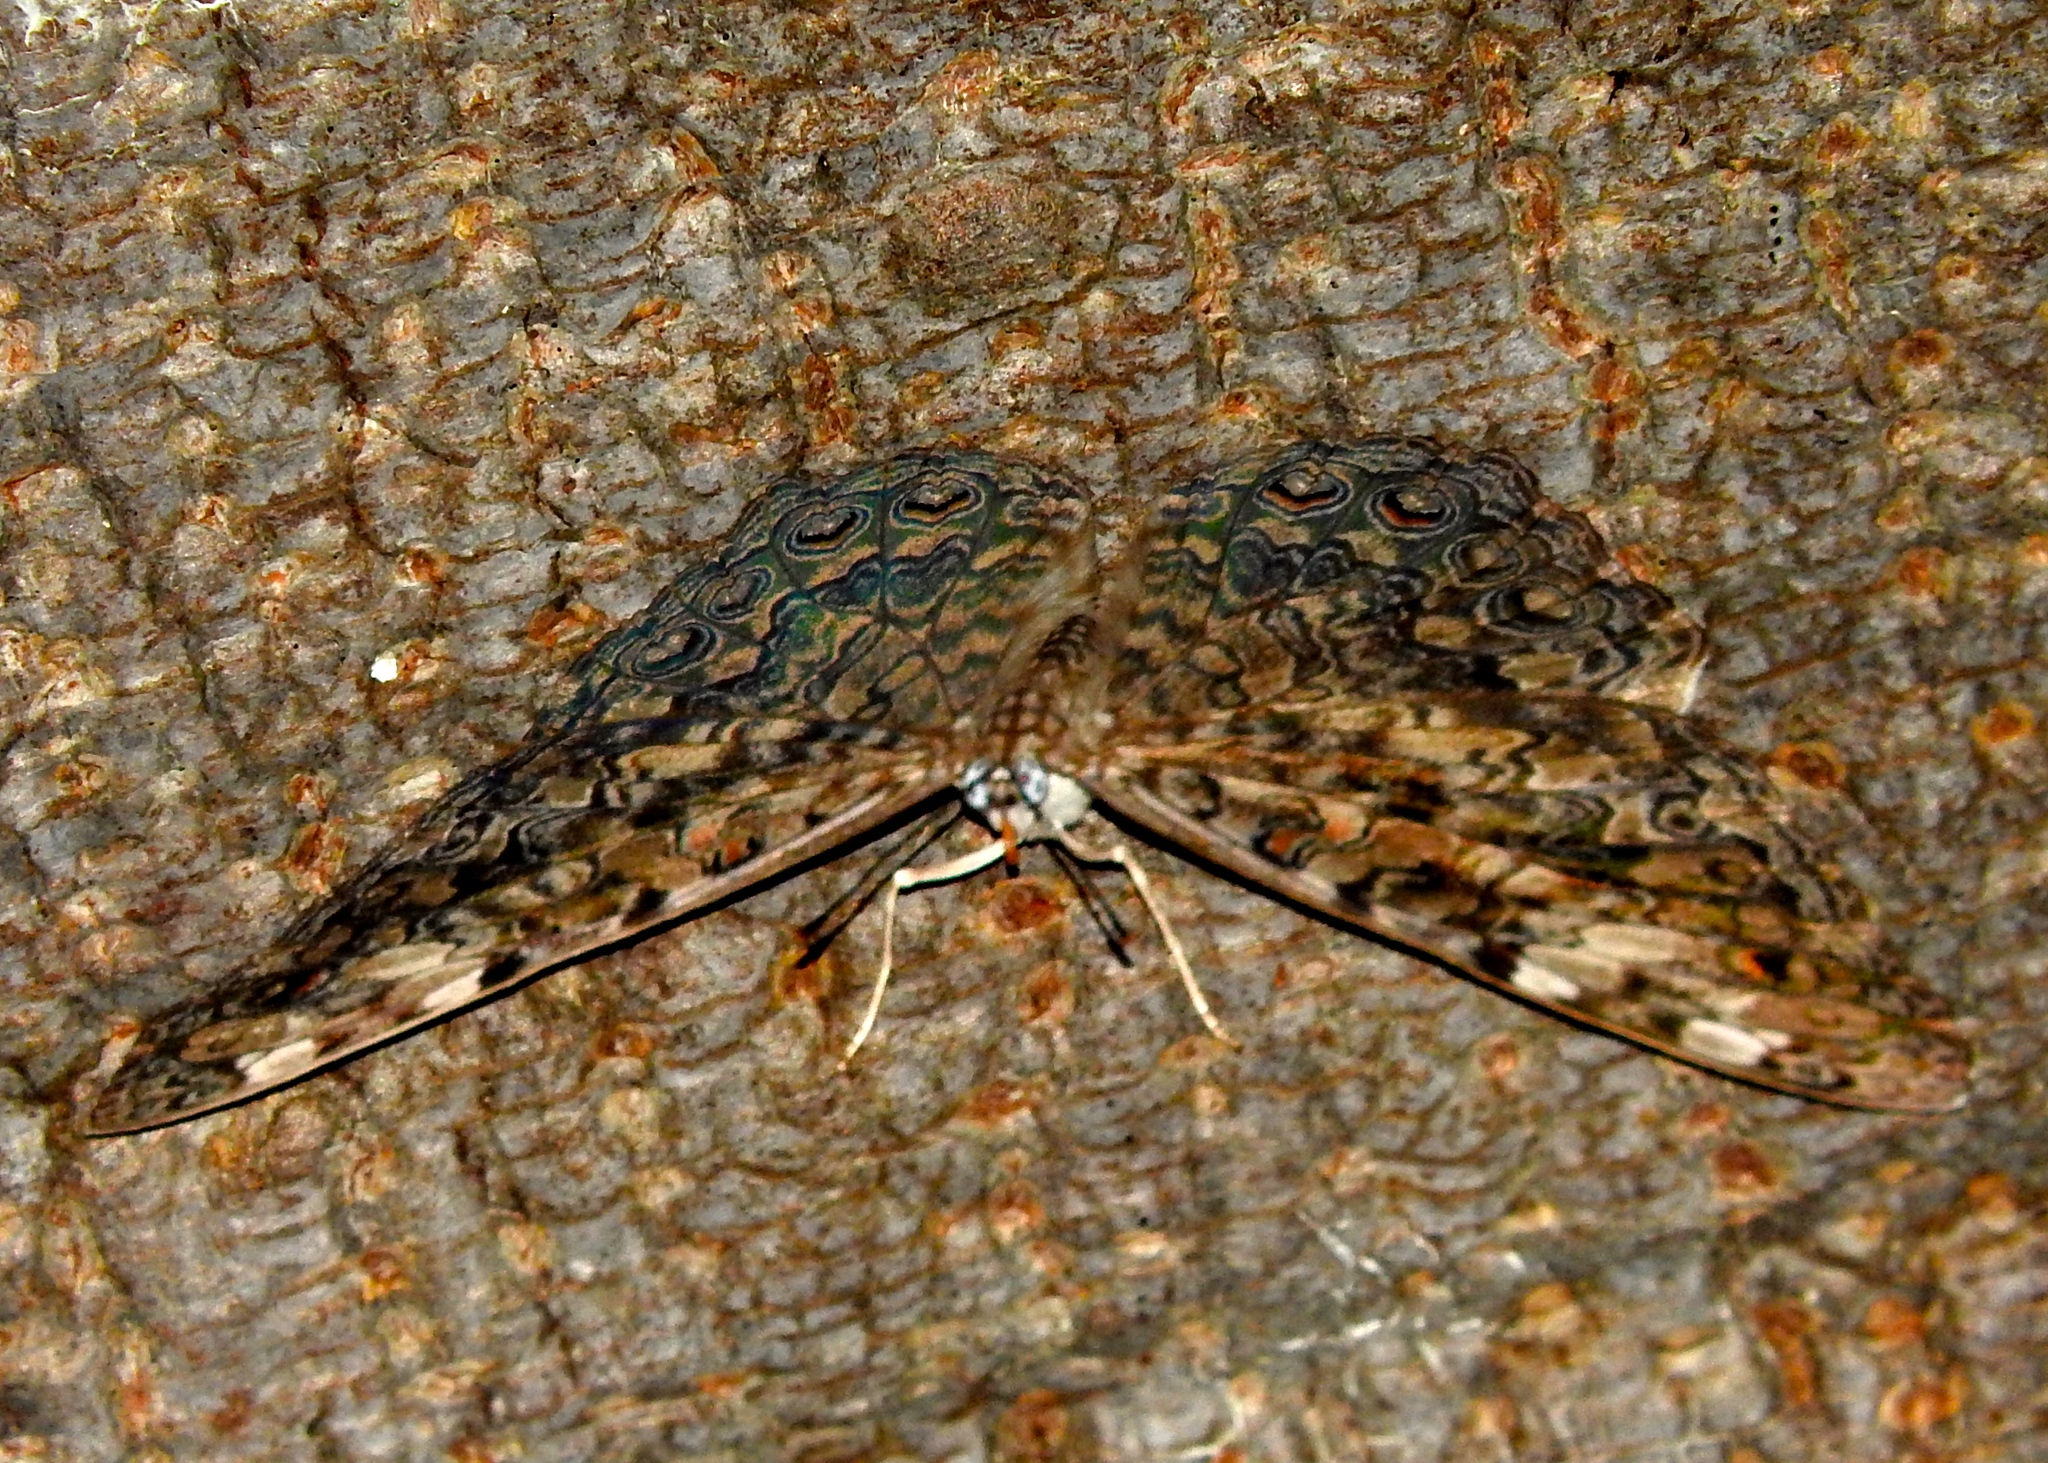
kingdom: Animalia
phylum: Arthropoda
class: Insecta
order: Lepidoptera
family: Nymphalidae
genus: Hamadryas
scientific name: Hamadryas februa
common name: Gray cracker
